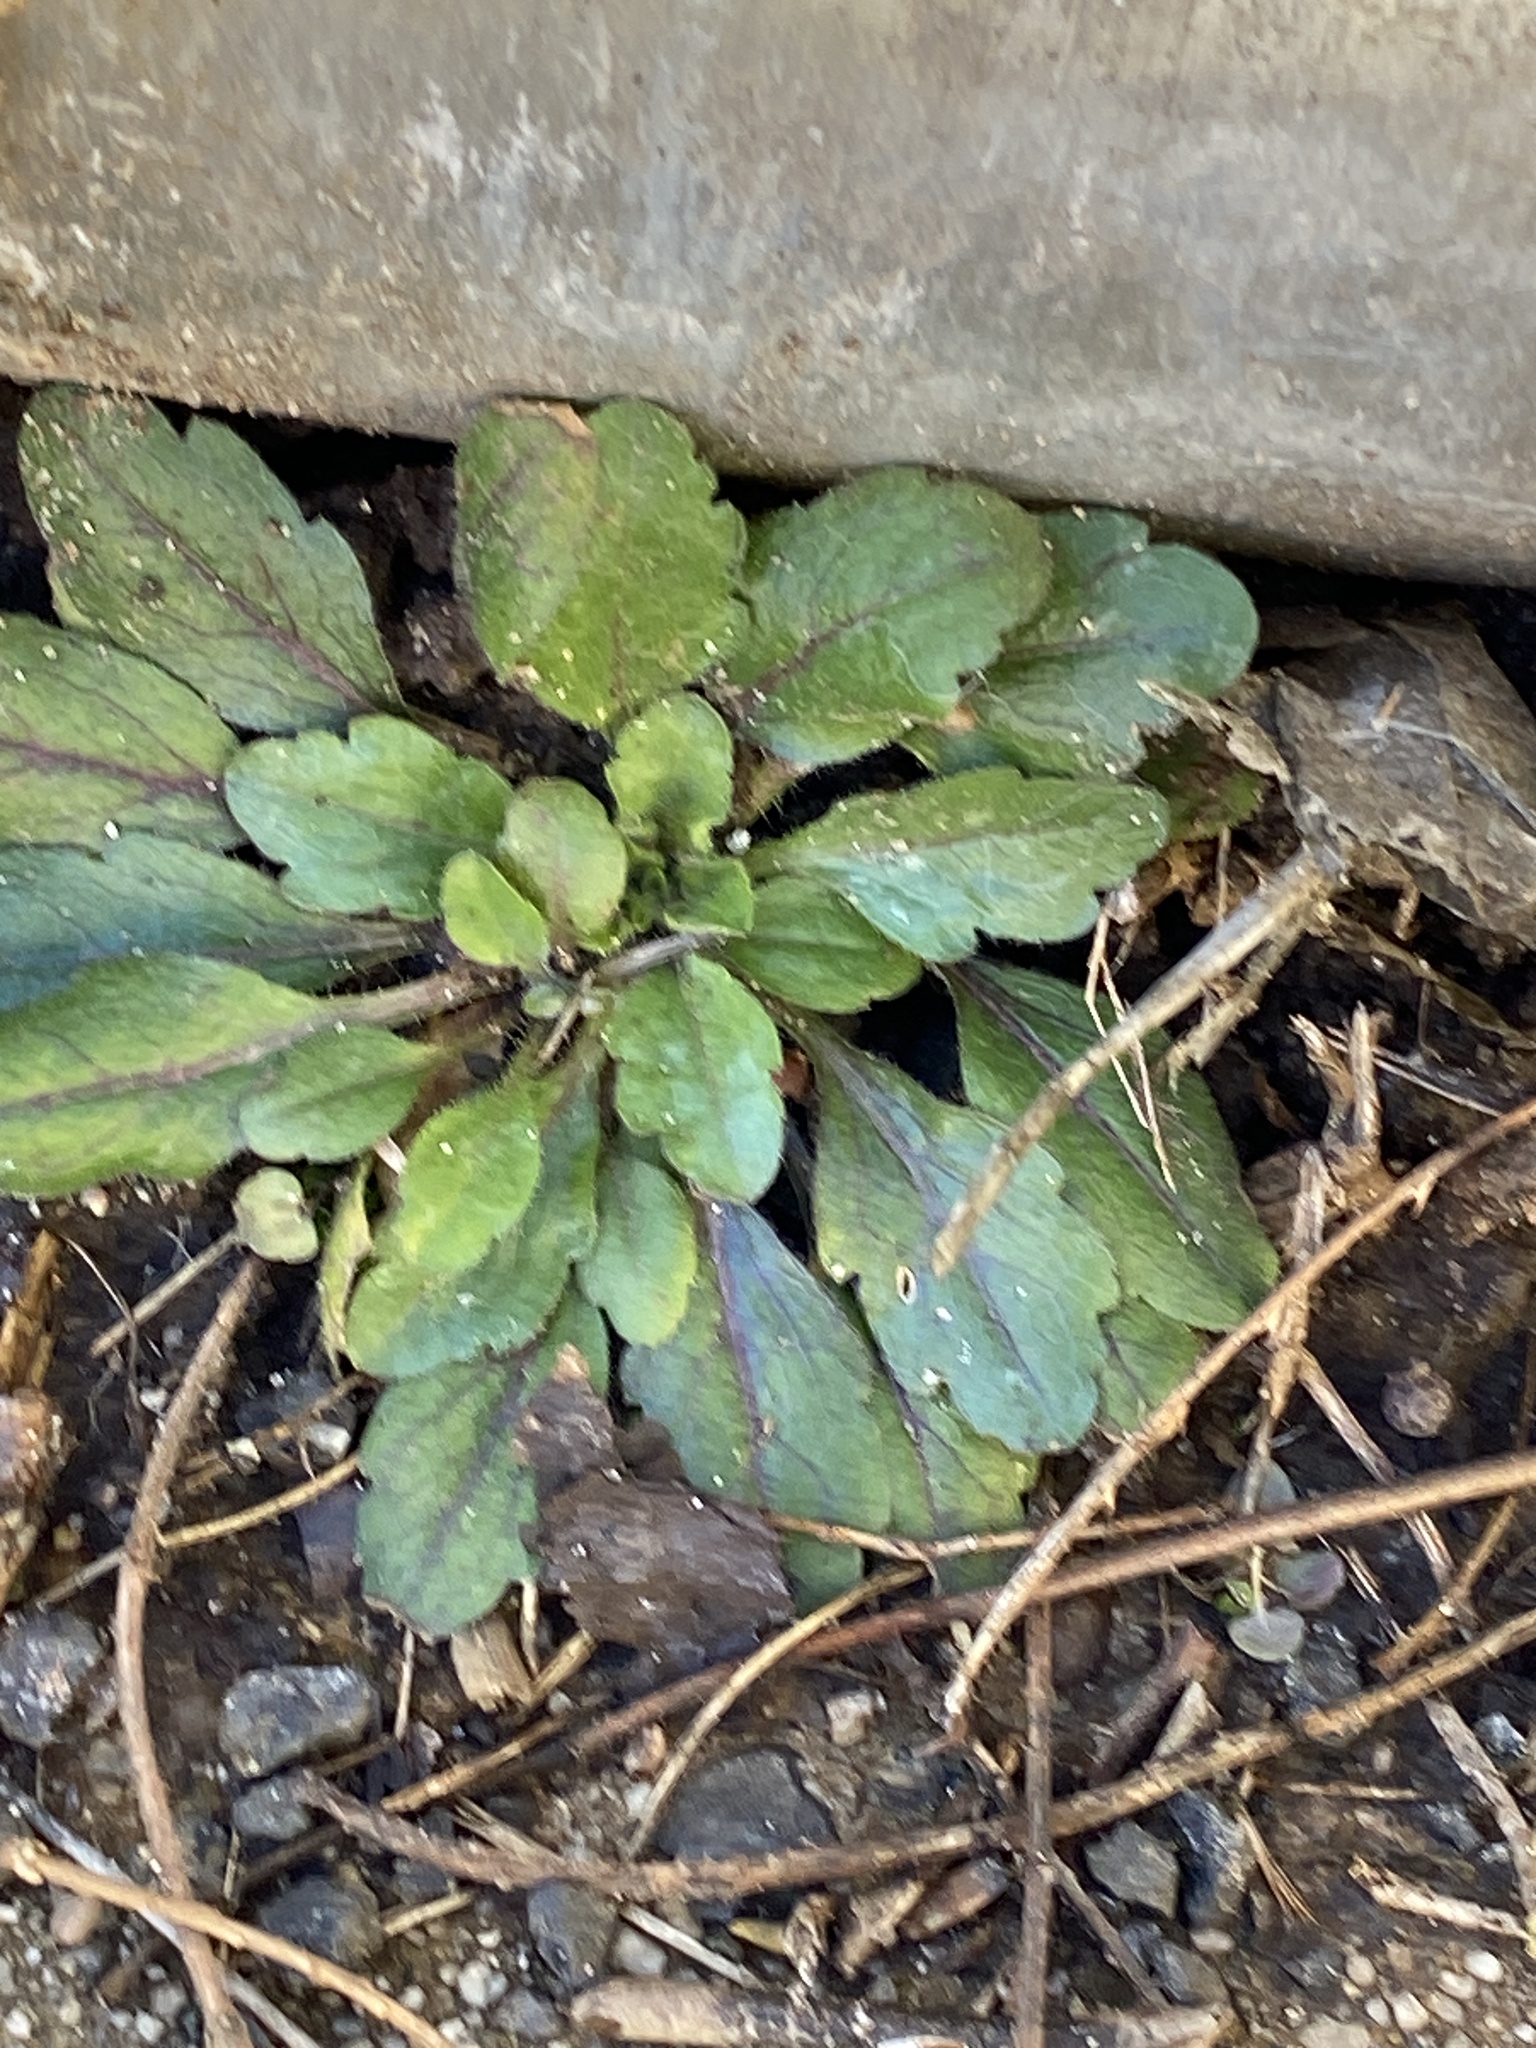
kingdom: Plantae
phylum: Tracheophyta
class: Magnoliopsida
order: Asterales
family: Asteraceae
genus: Erigeron
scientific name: Erigeron canadensis
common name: Canadian fleabane
